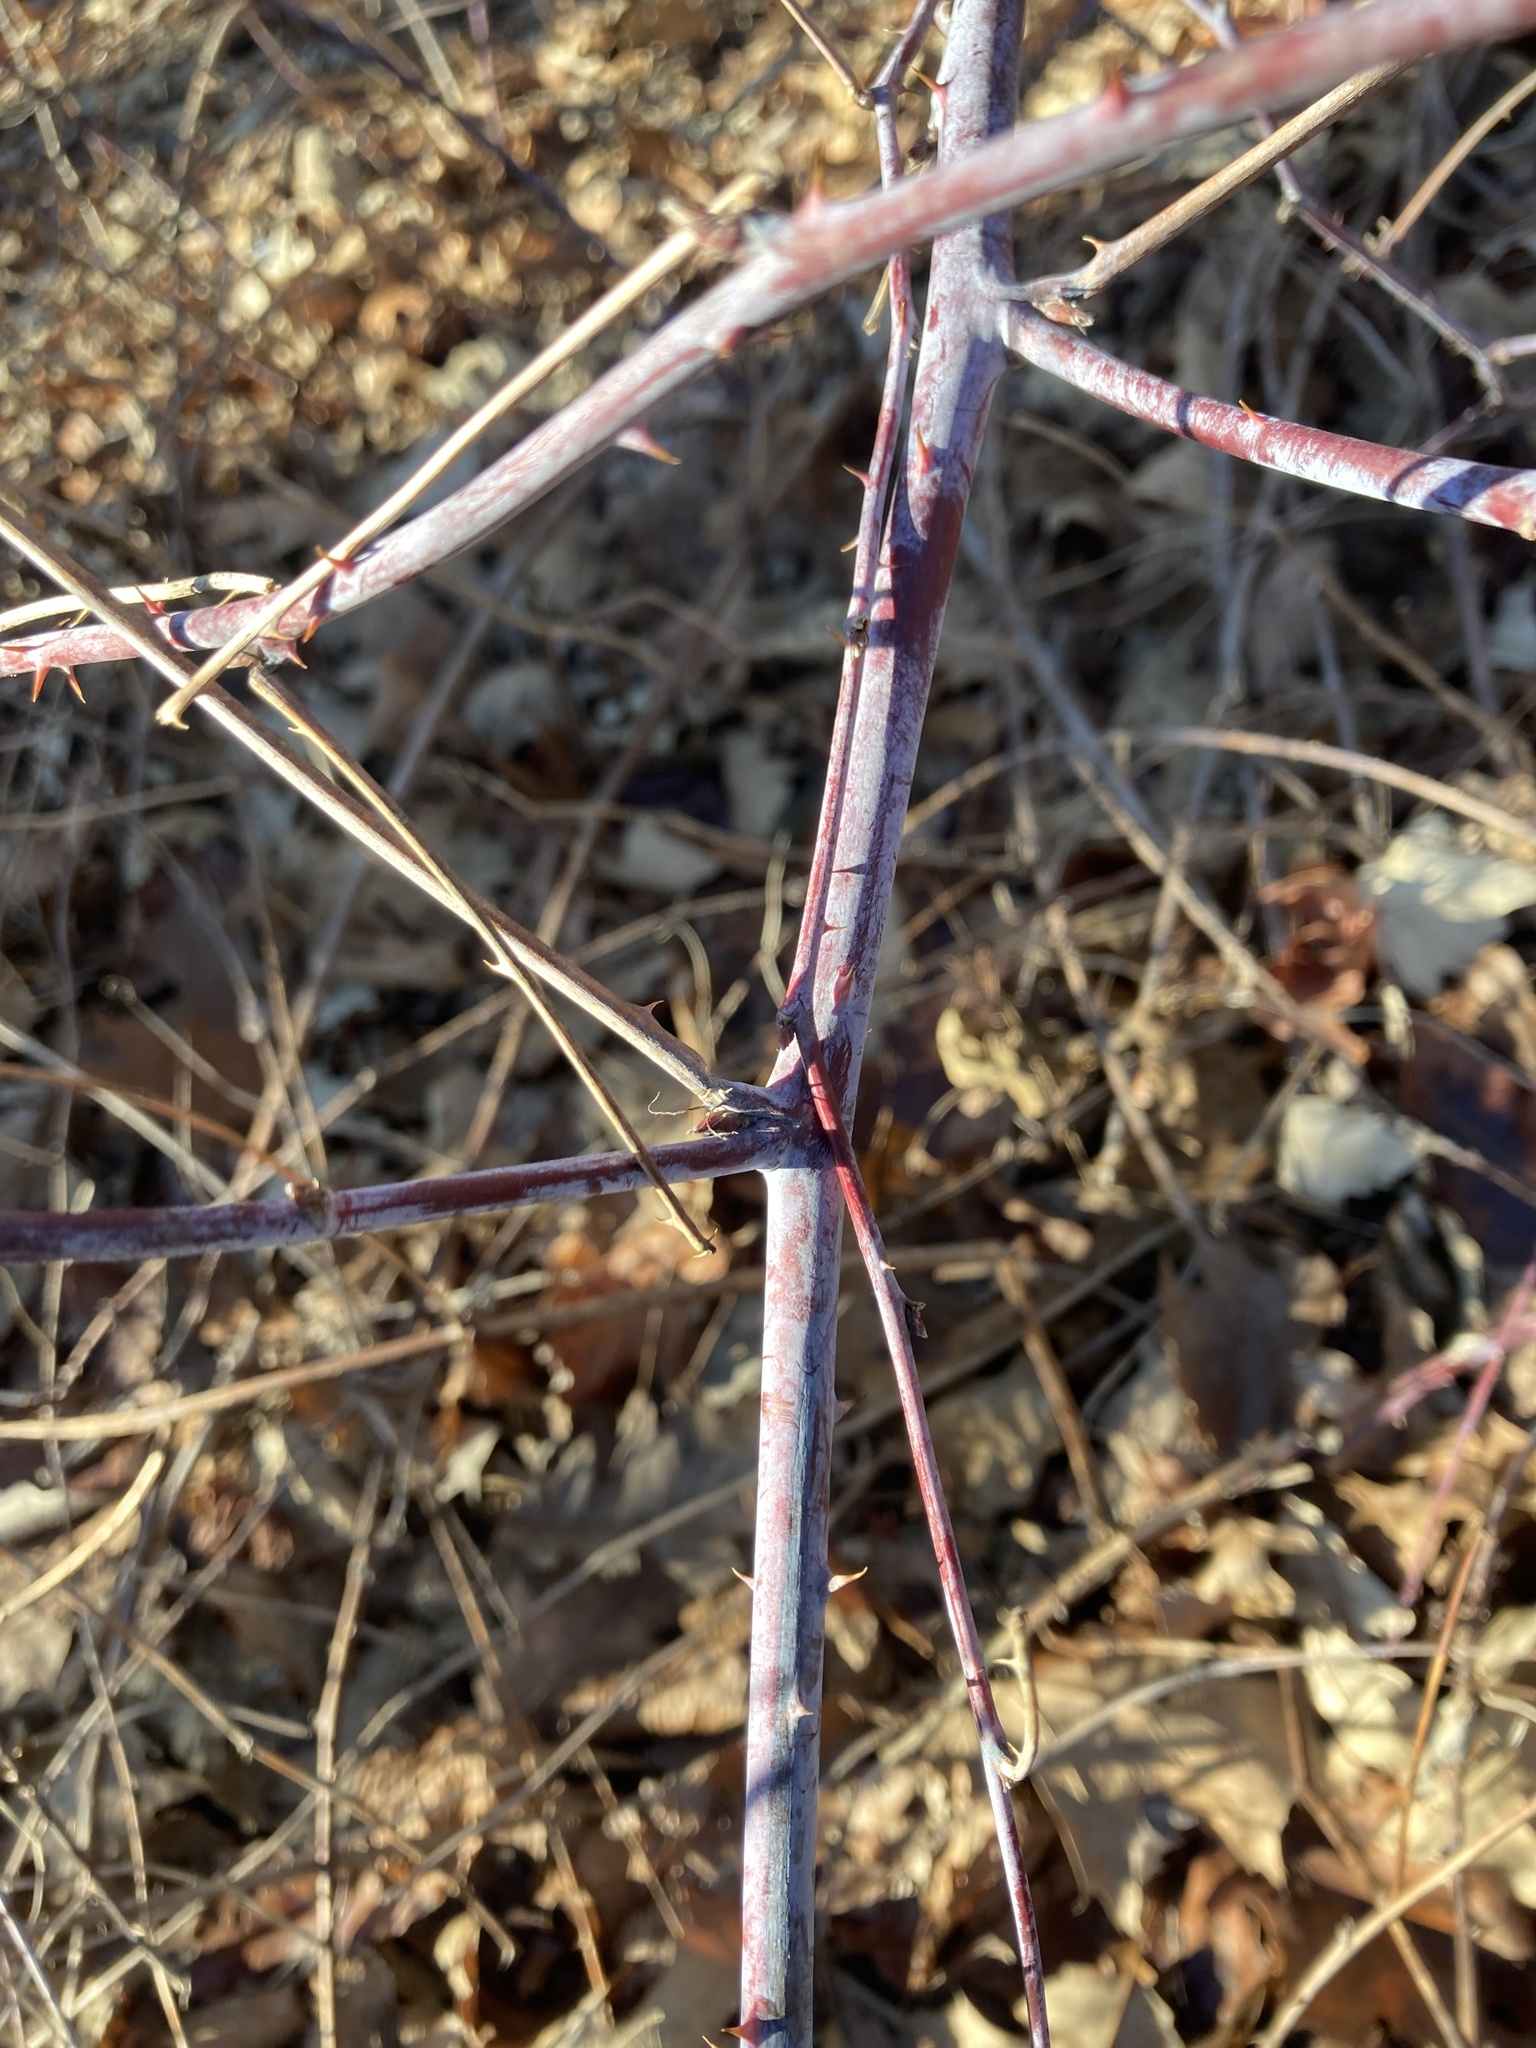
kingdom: Plantae
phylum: Tracheophyta
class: Magnoliopsida
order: Rosales
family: Rosaceae
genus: Rubus
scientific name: Rubus occidentalis
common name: Black raspberry
